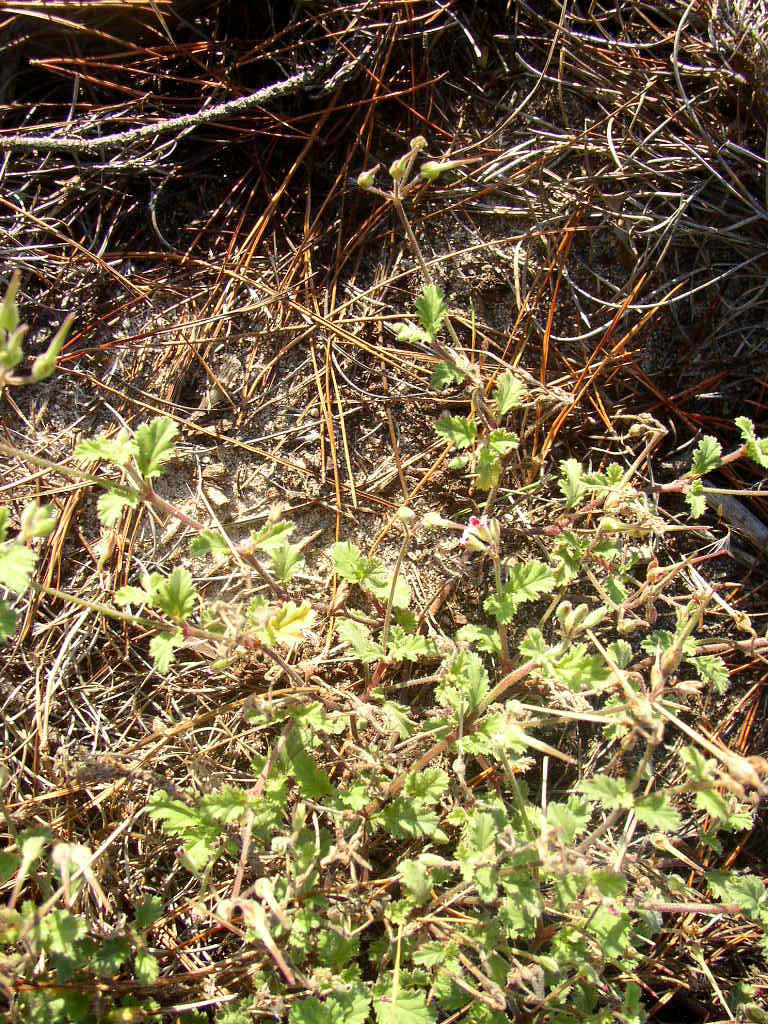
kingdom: Plantae
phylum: Tracheophyta
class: Magnoliopsida
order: Geraniales
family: Geraniaceae
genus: Pelargonium
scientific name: Pelargonium althaeoides
